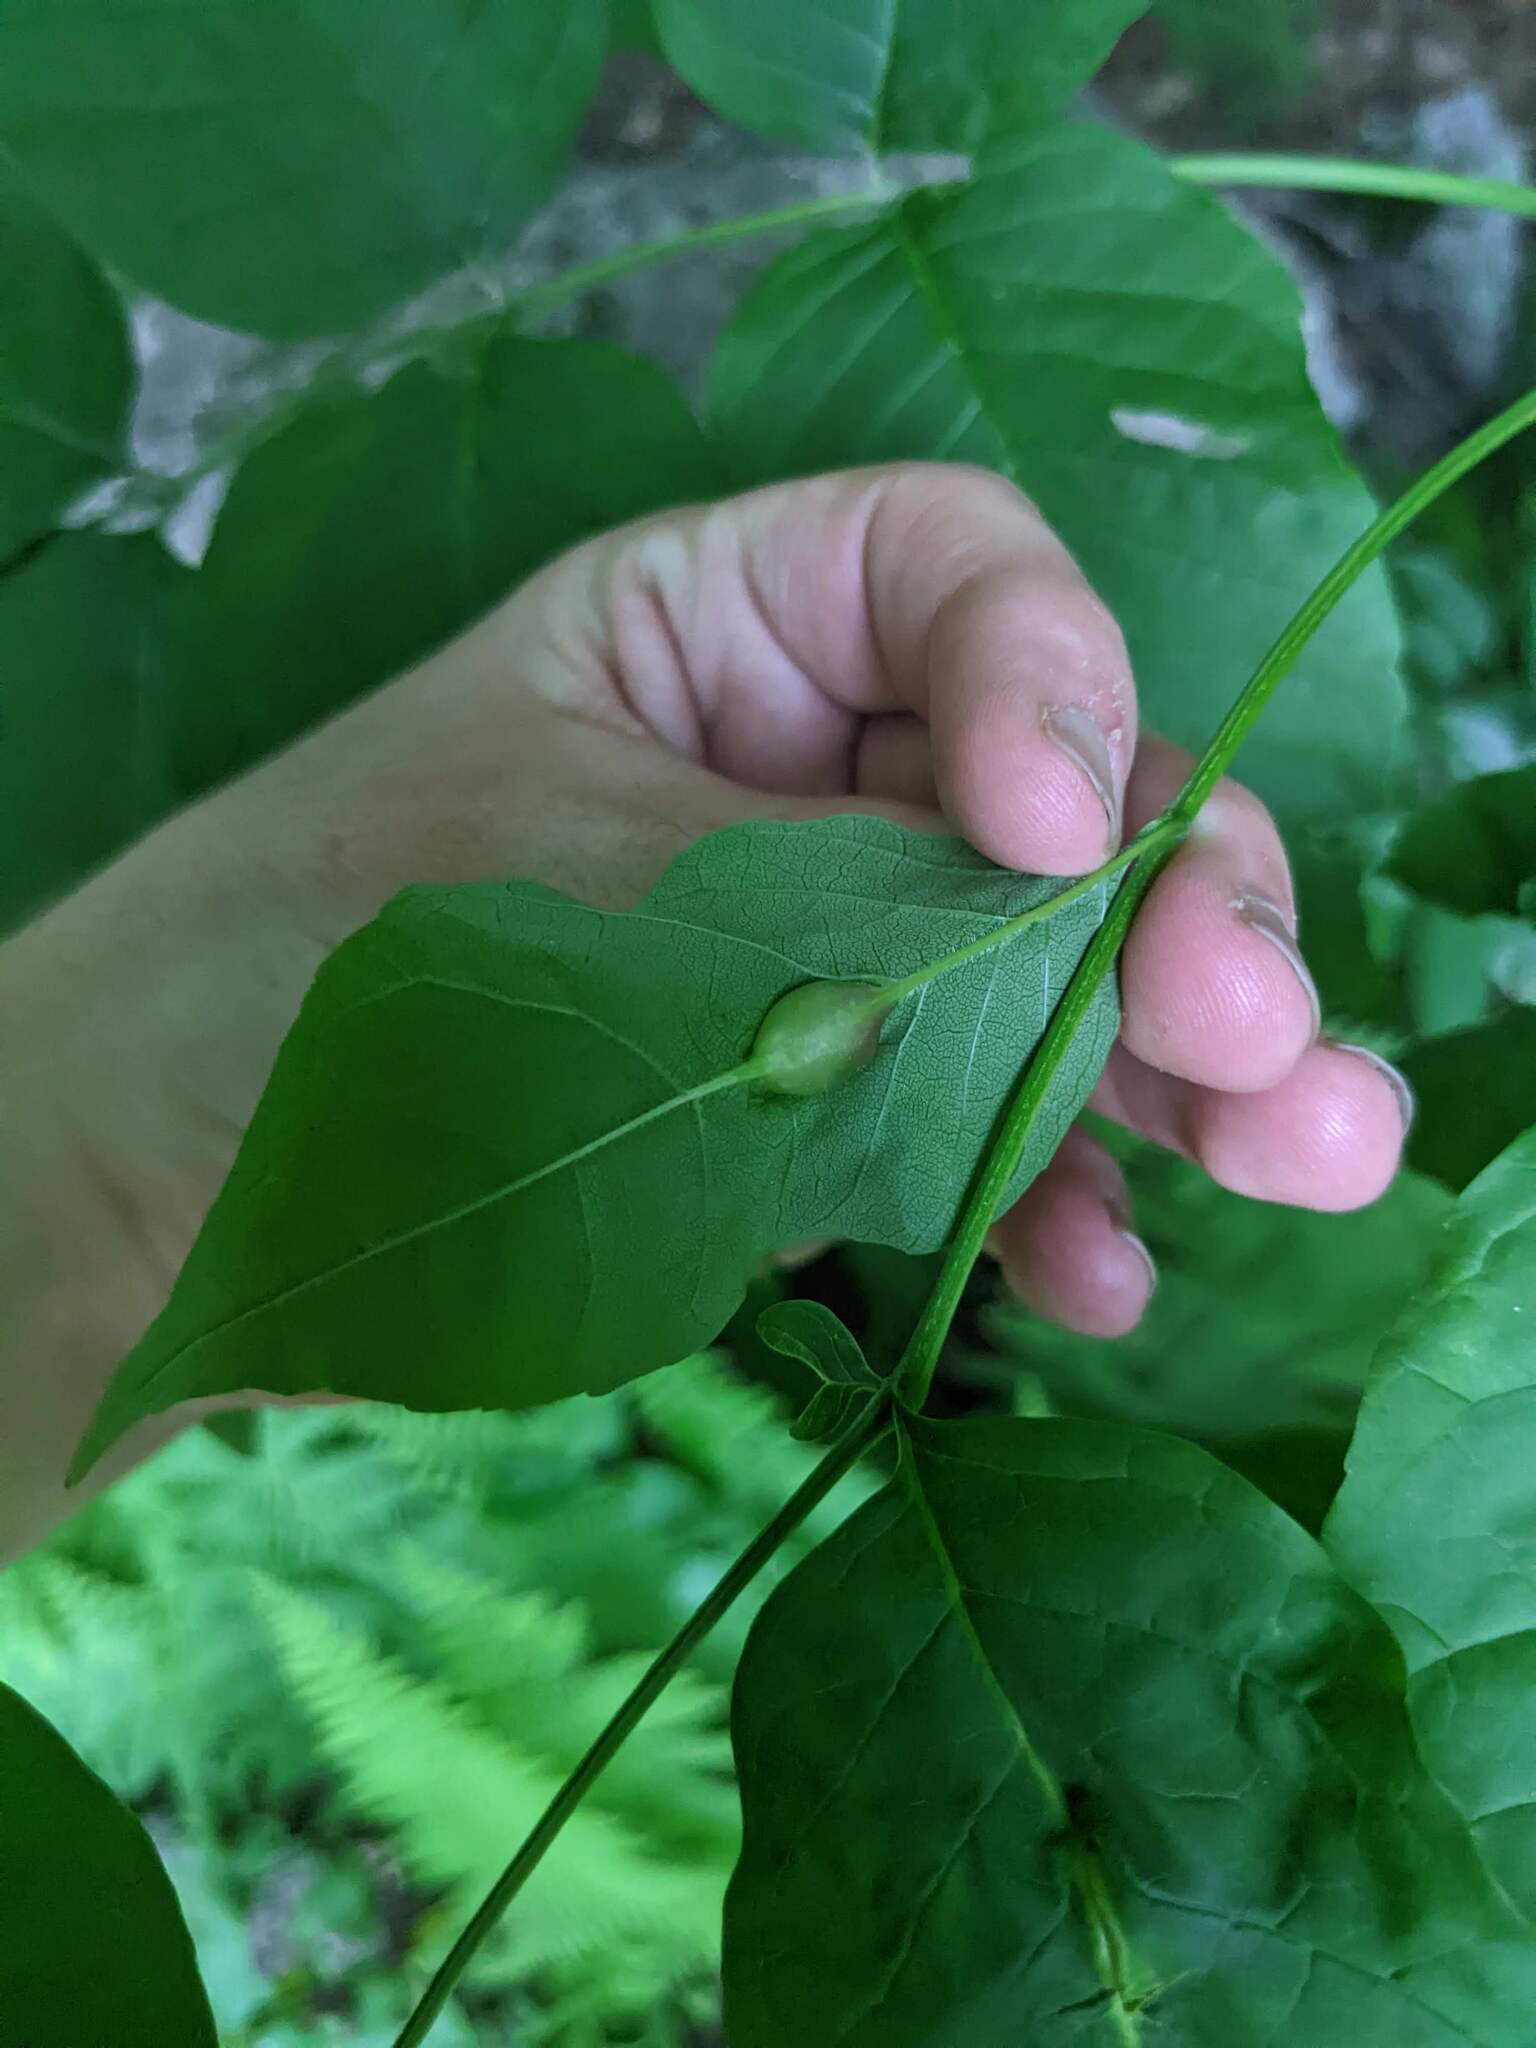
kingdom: Animalia
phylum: Arthropoda
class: Insecta
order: Diptera
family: Cecidomyiidae
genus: Dasineura
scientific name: Dasineura tumidosae
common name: Ash petiole gall midge
